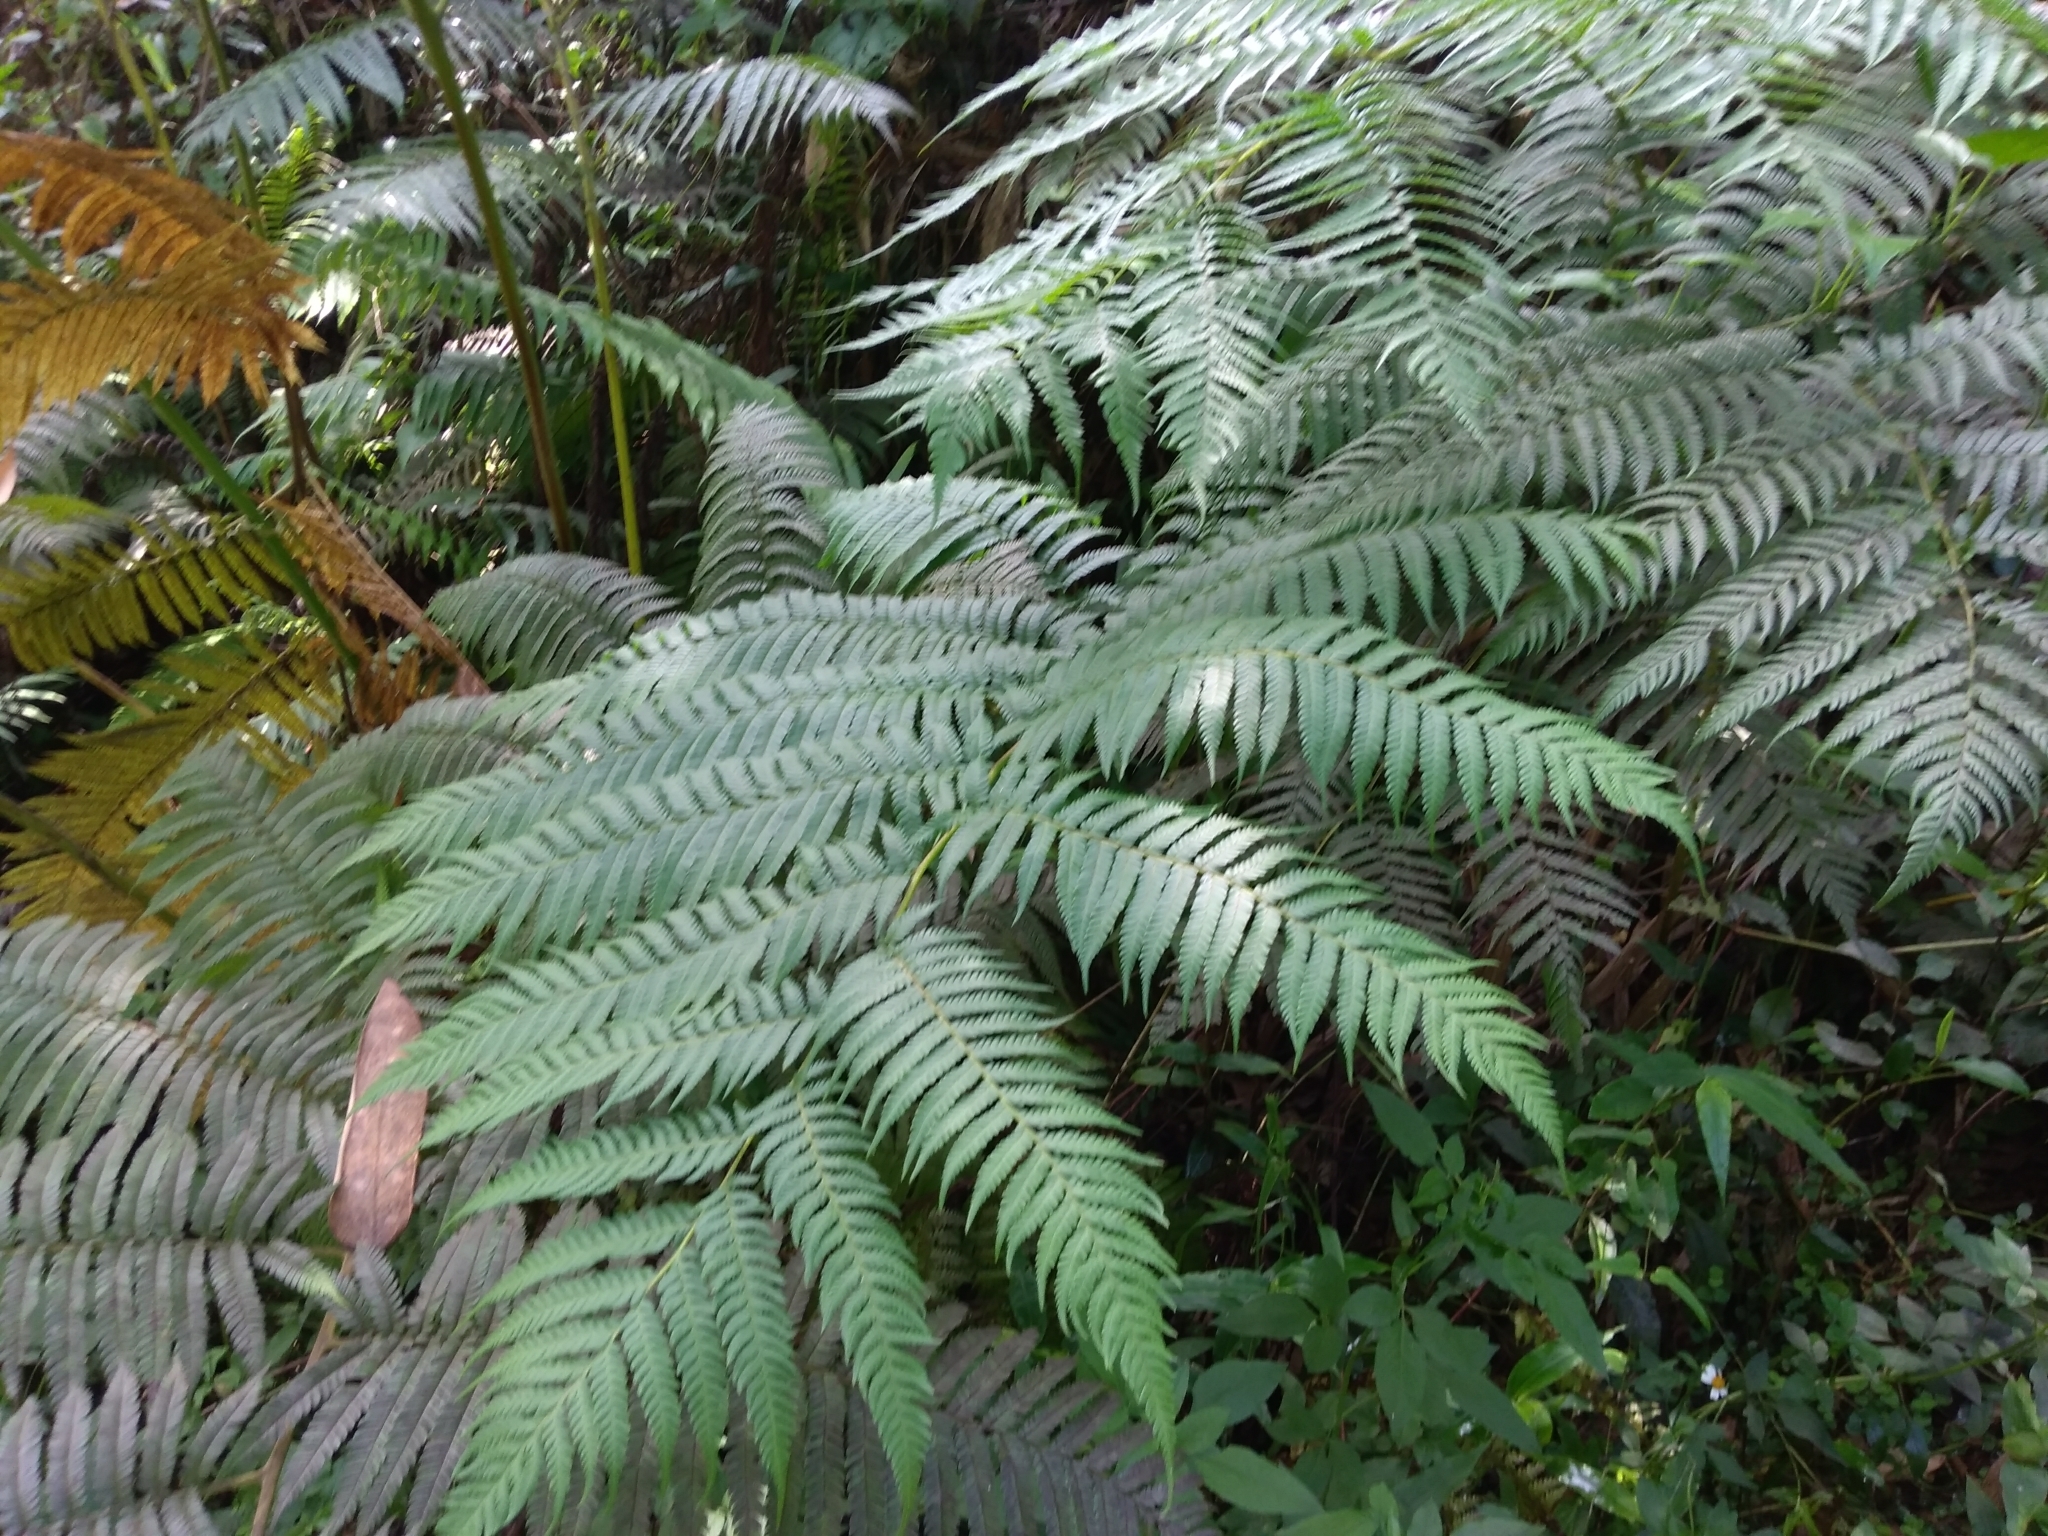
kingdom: Plantae
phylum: Tracheophyta
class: Polypodiopsida
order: Cyatheales
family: Cyatheaceae
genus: Alsophila
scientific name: Alsophila lepifera
